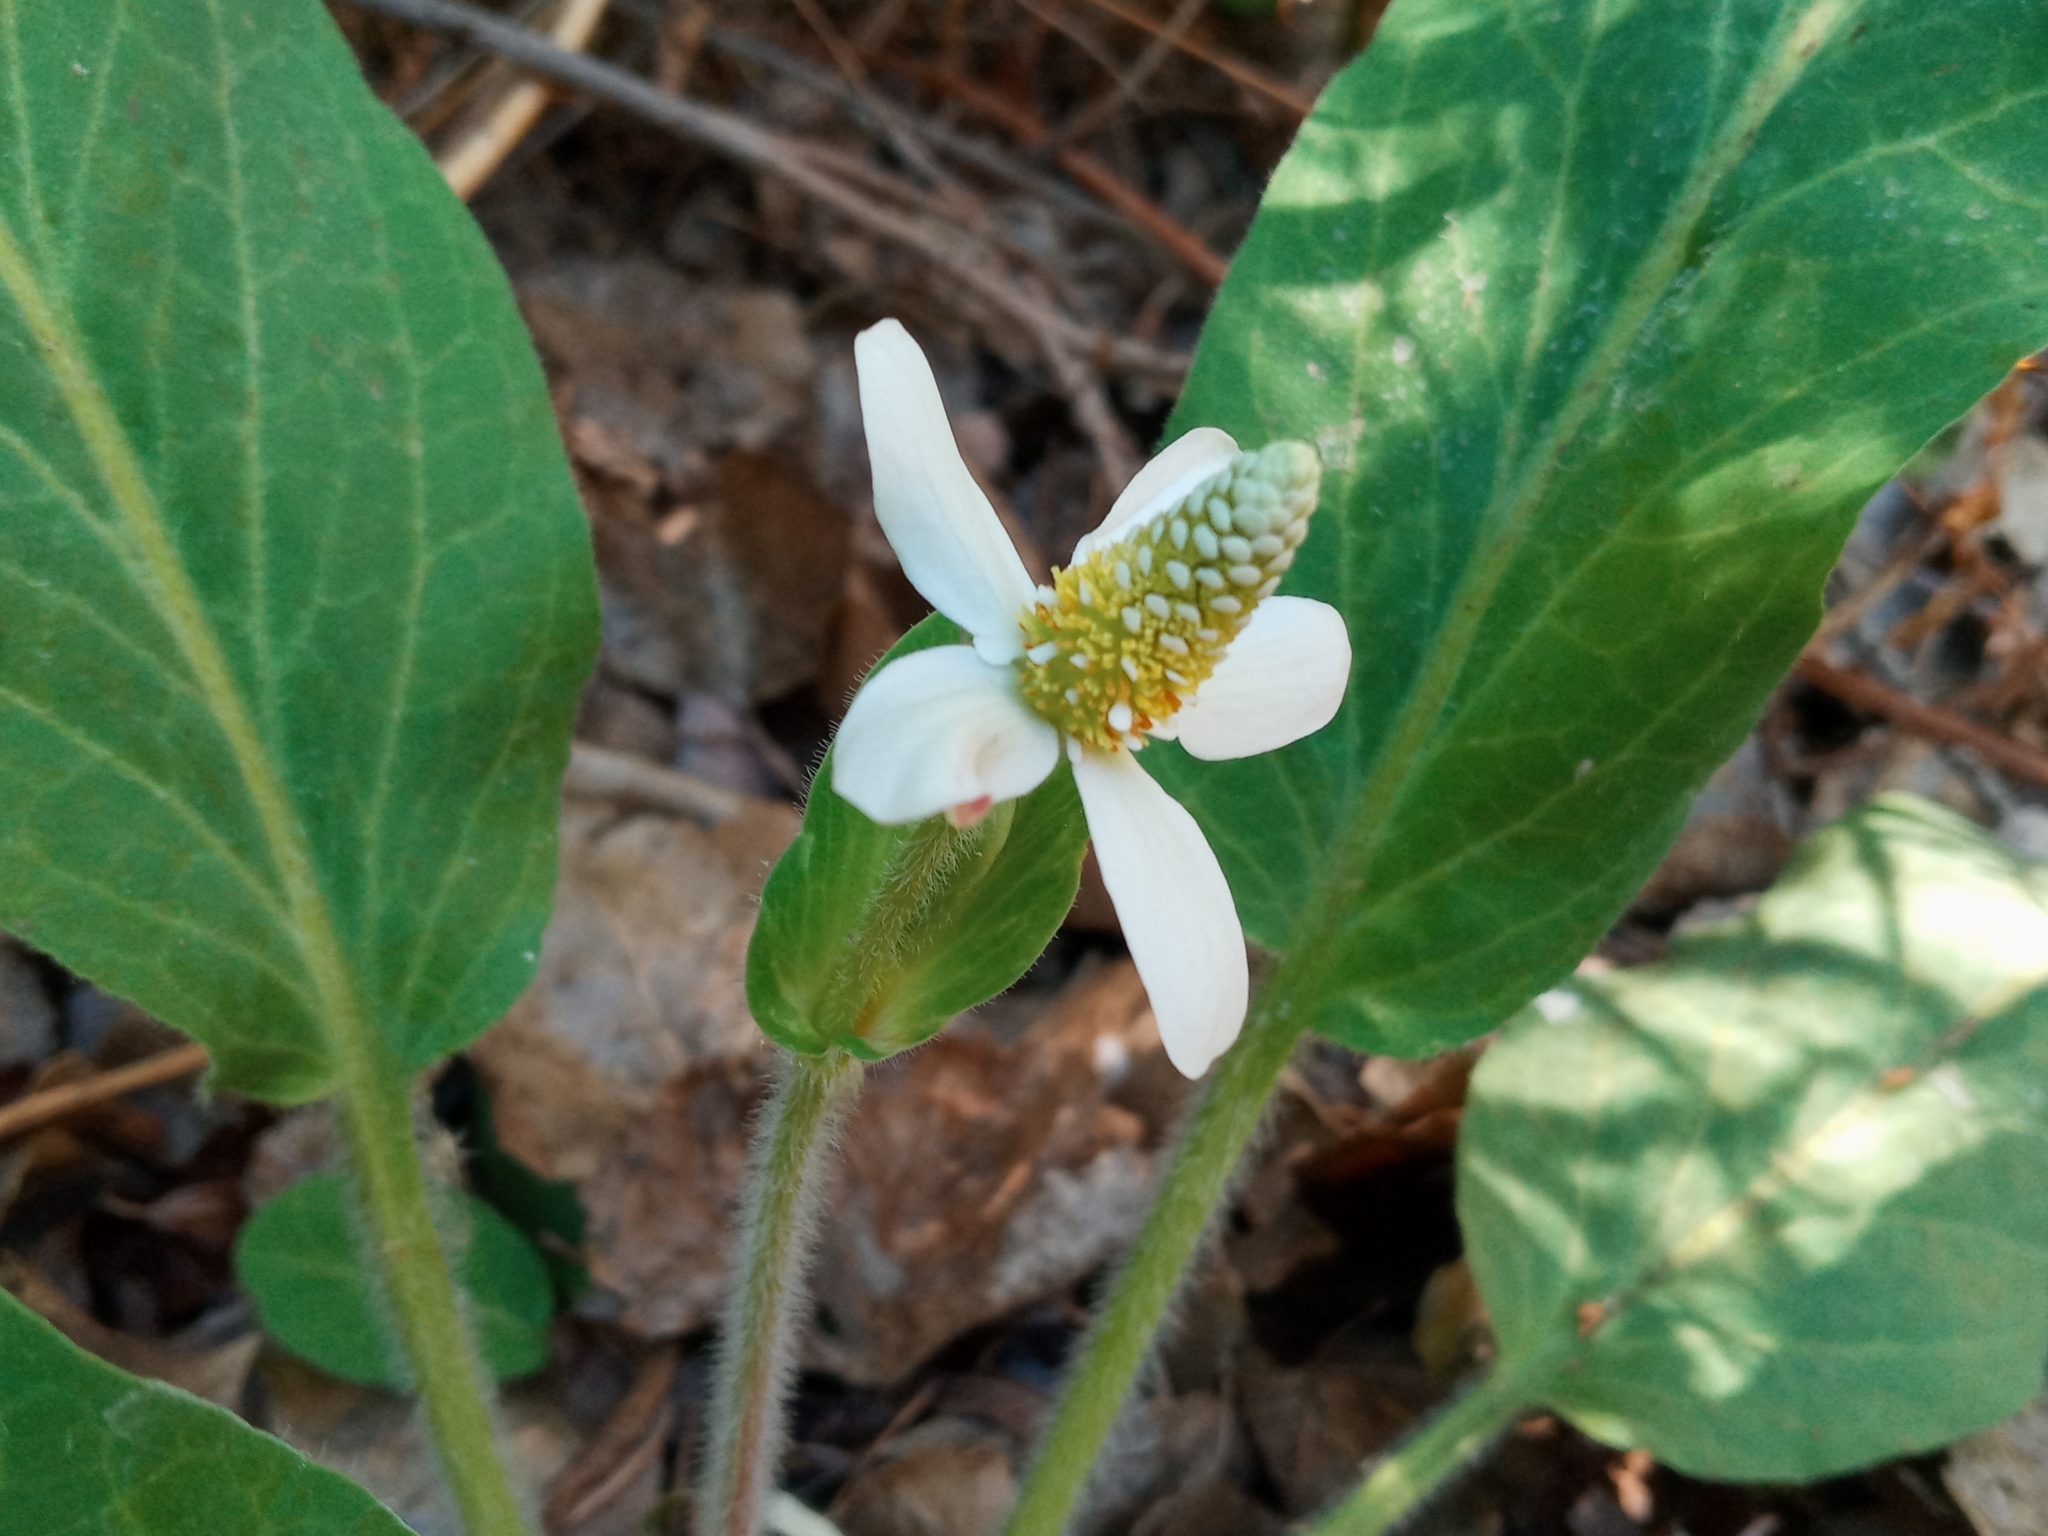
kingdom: Plantae
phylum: Tracheophyta
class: Magnoliopsida
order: Piperales
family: Saururaceae
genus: Anemopsis
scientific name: Anemopsis californica
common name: Apache-beads
